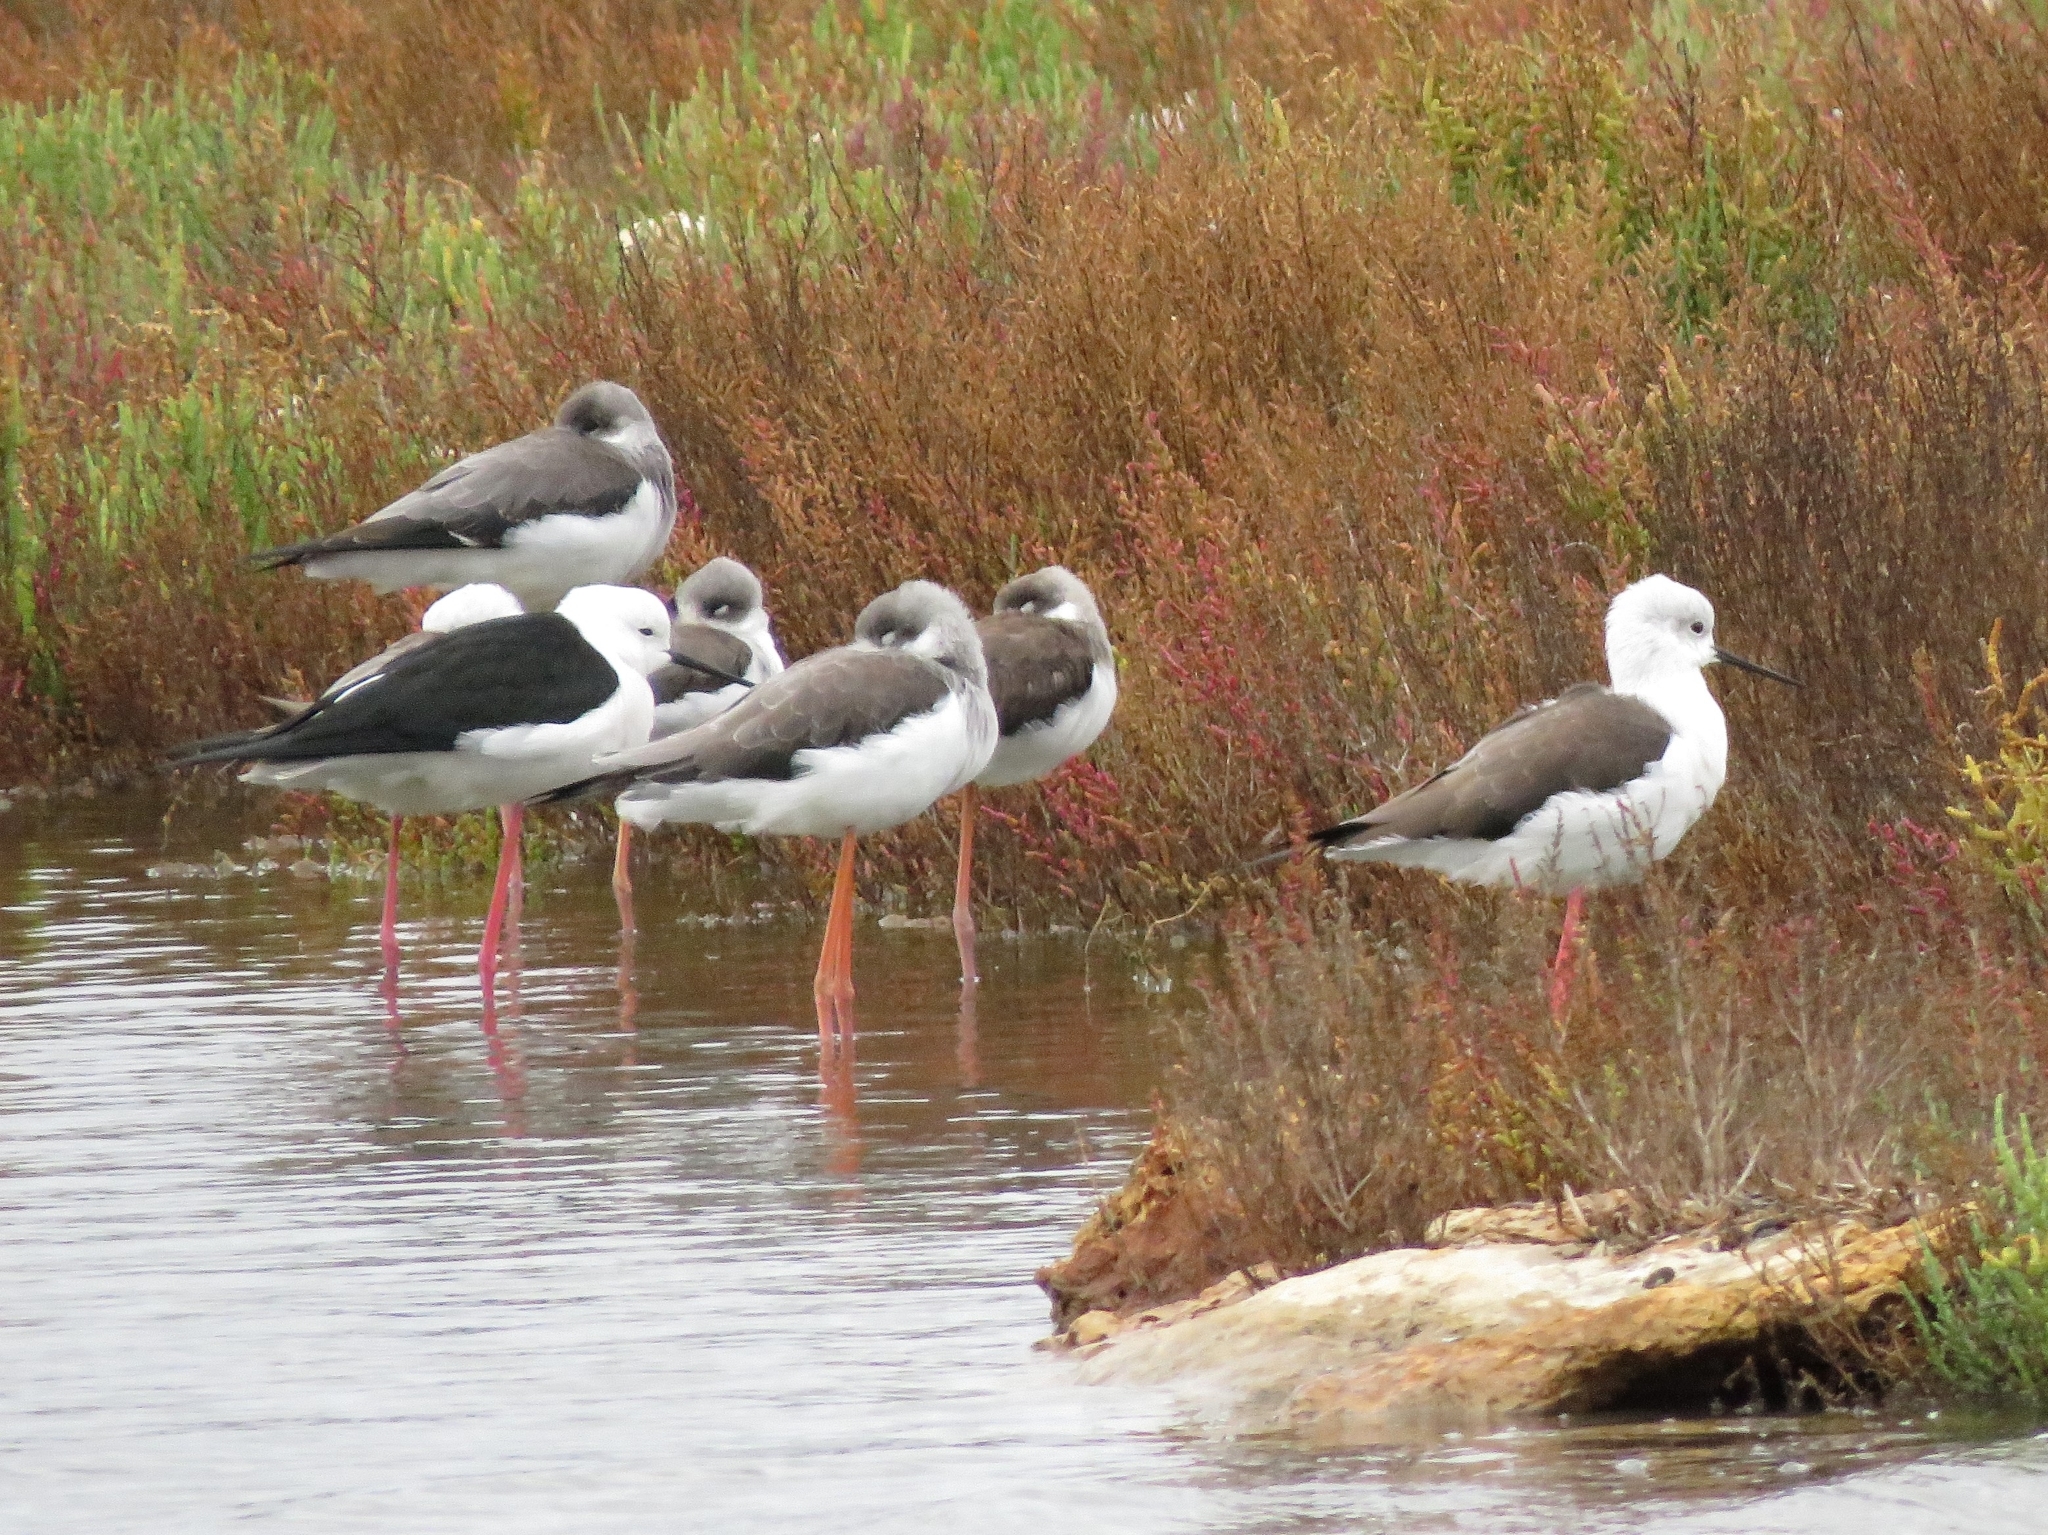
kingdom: Animalia
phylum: Chordata
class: Aves
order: Charadriiformes
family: Recurvirostridae
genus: Himantopus
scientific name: Himantopus himantopus
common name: Black-winged stilt
